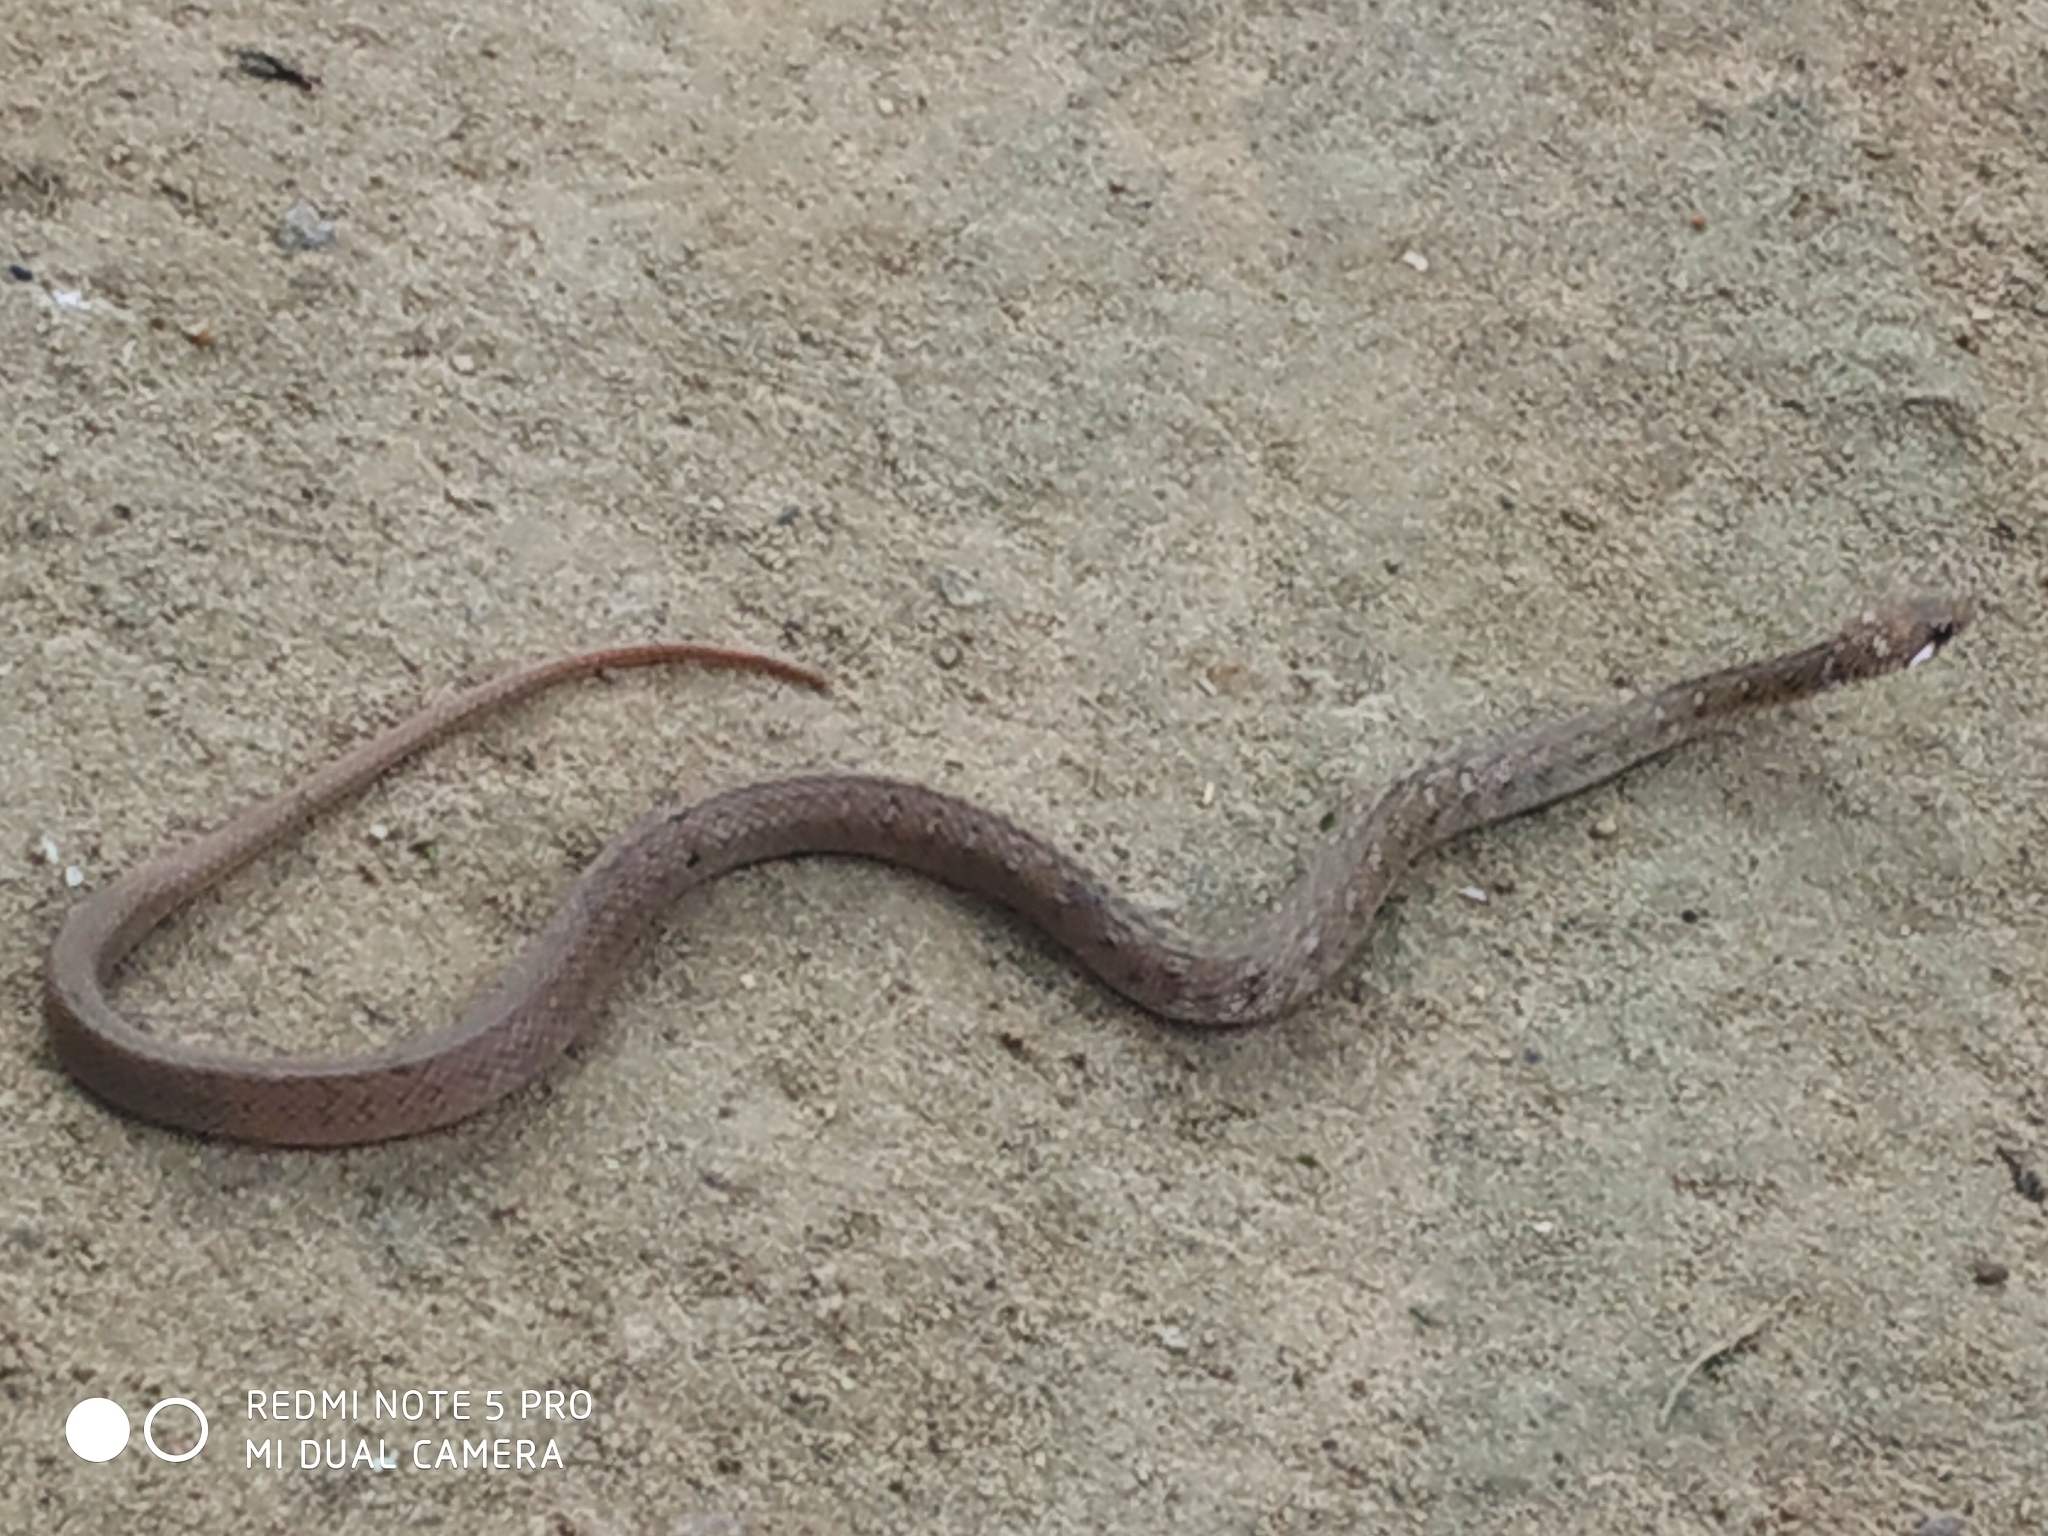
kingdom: Animalia
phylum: Chordata
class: Squamata
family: Colubridae
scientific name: Colubridae
